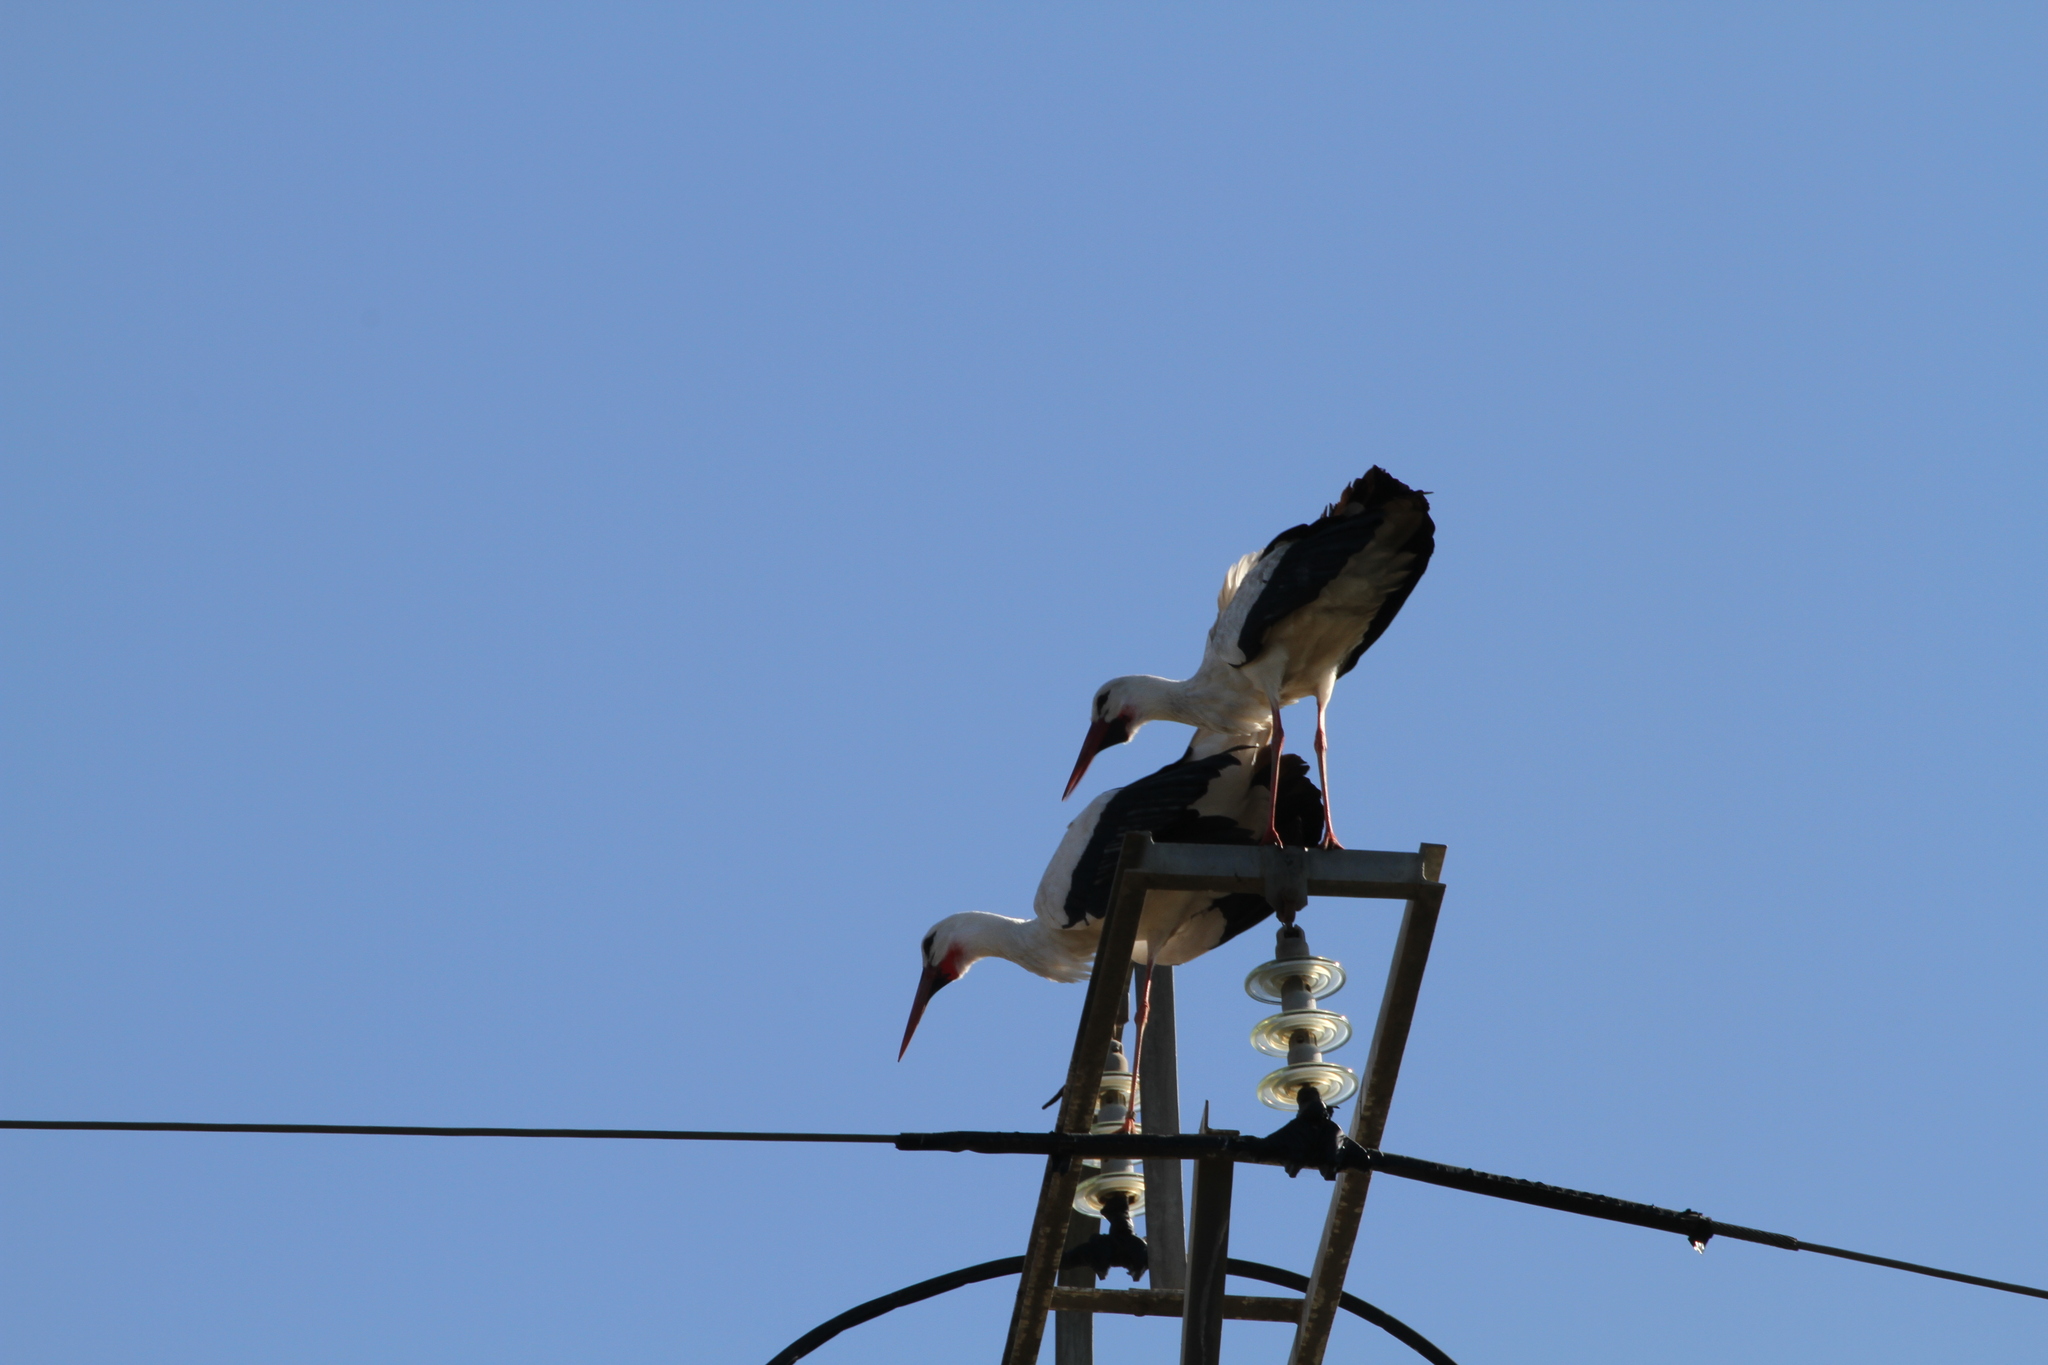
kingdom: Animalia
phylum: Chordata
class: Aves
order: Ciconiiformes
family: Ciconiidae
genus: Ciconia
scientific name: Ciconia ciconia
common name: White stork
